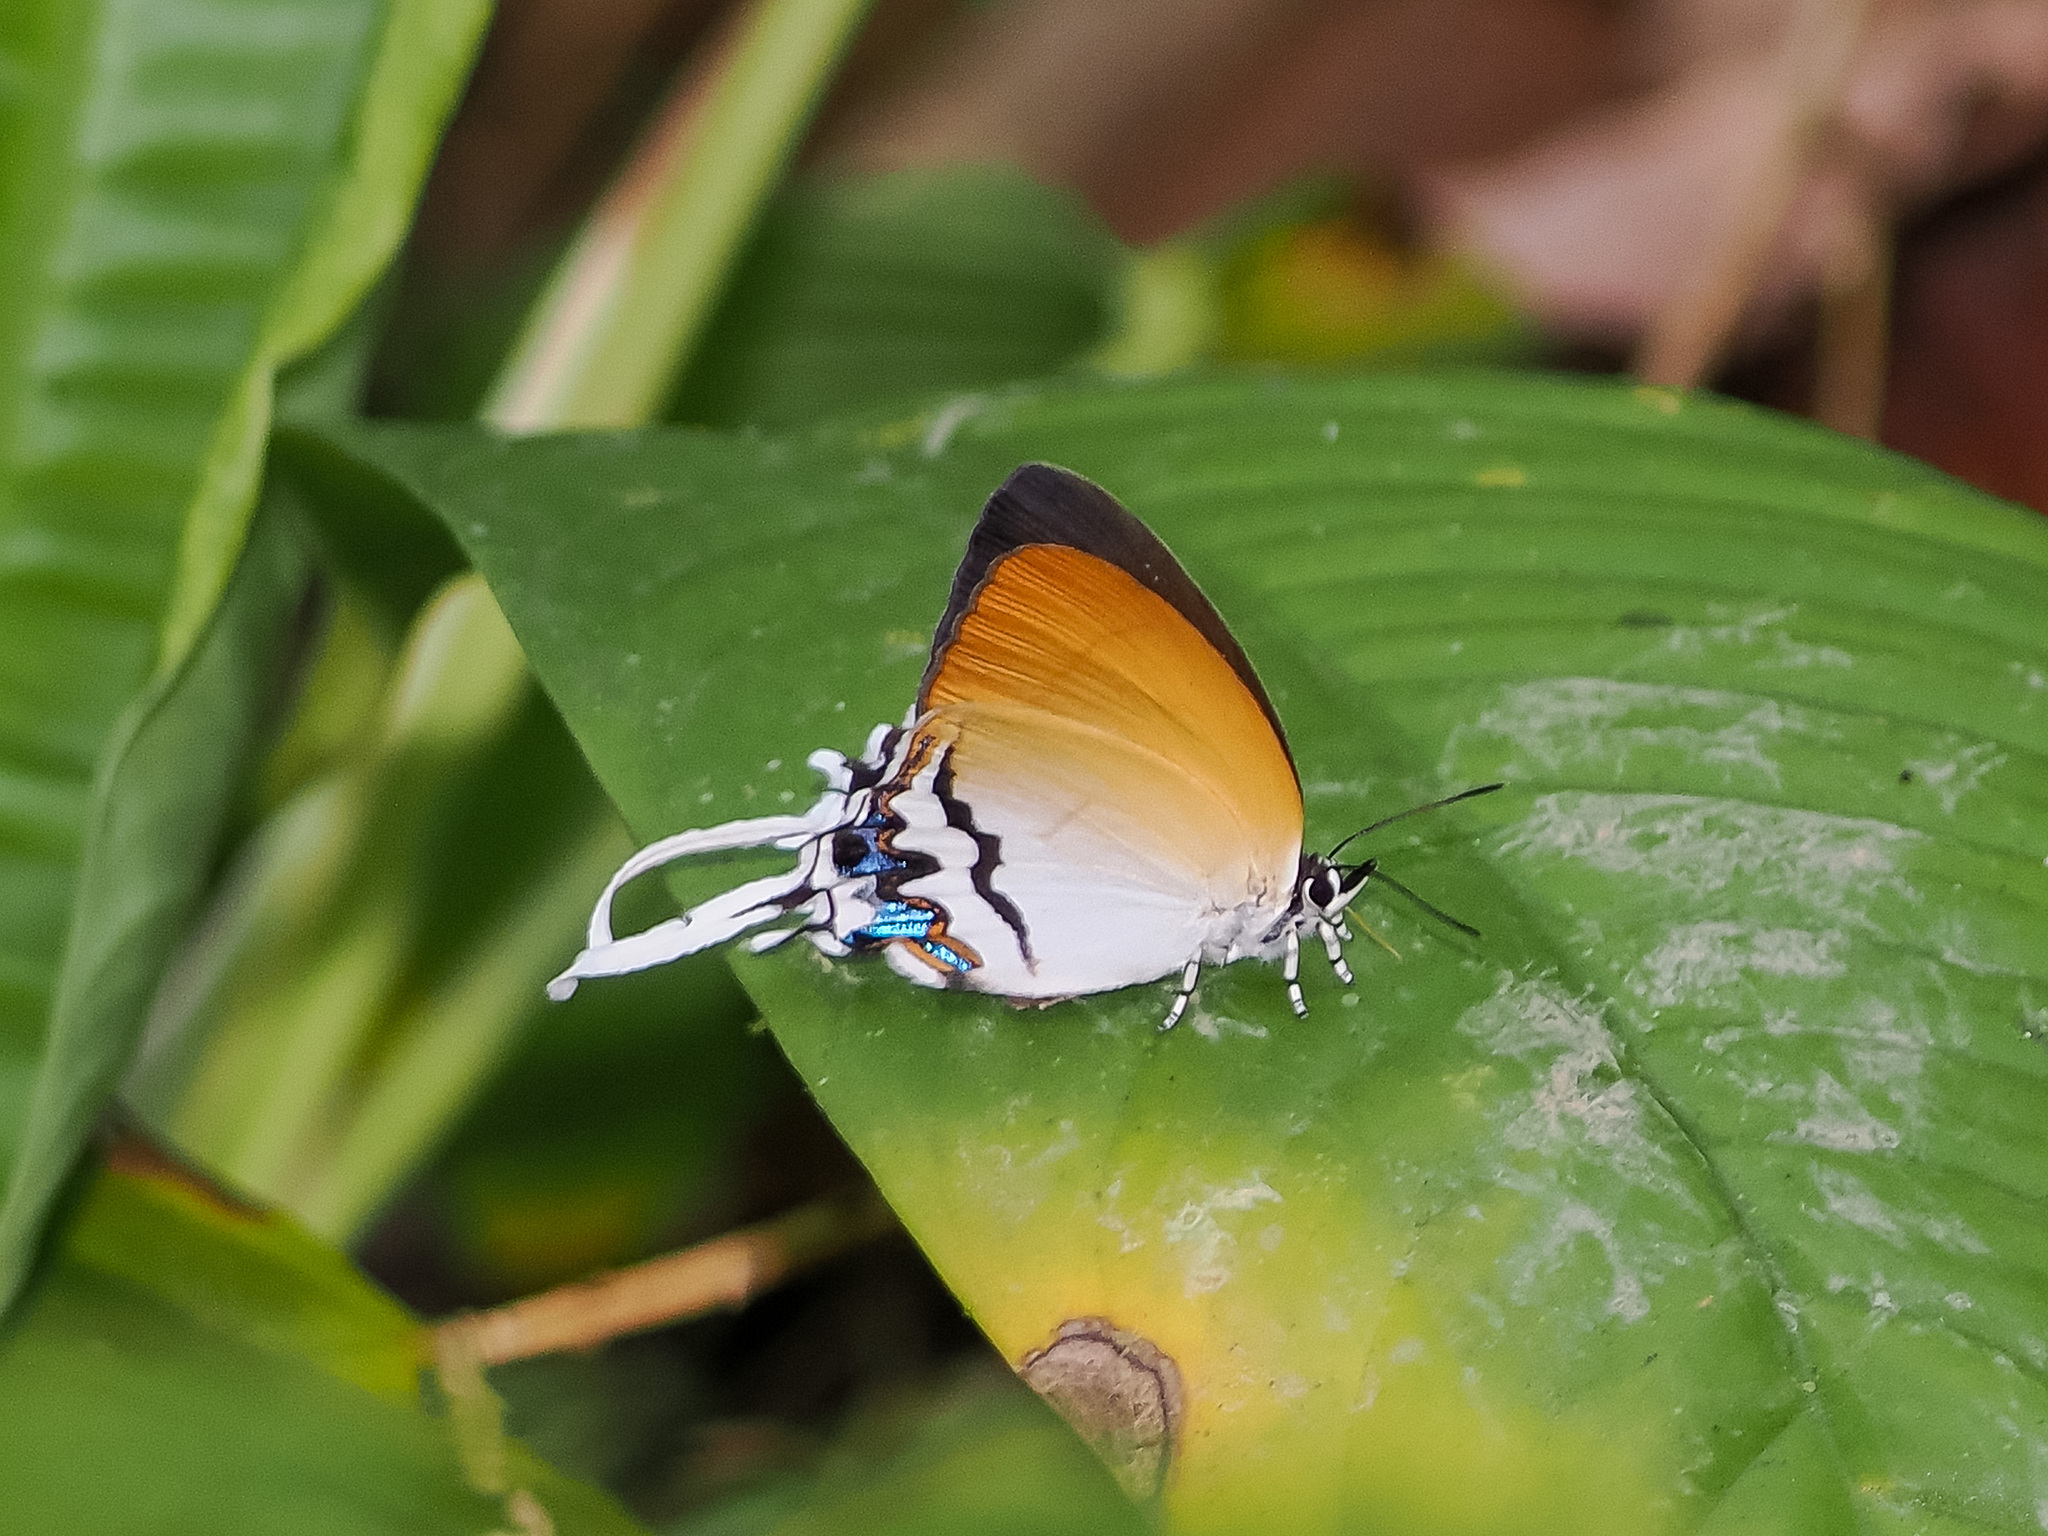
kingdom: Animalia
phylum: Arthropoda
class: Insecta
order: Lepidoptera
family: Lycaenidae
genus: Drupadia
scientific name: Drupadia cinesoides
